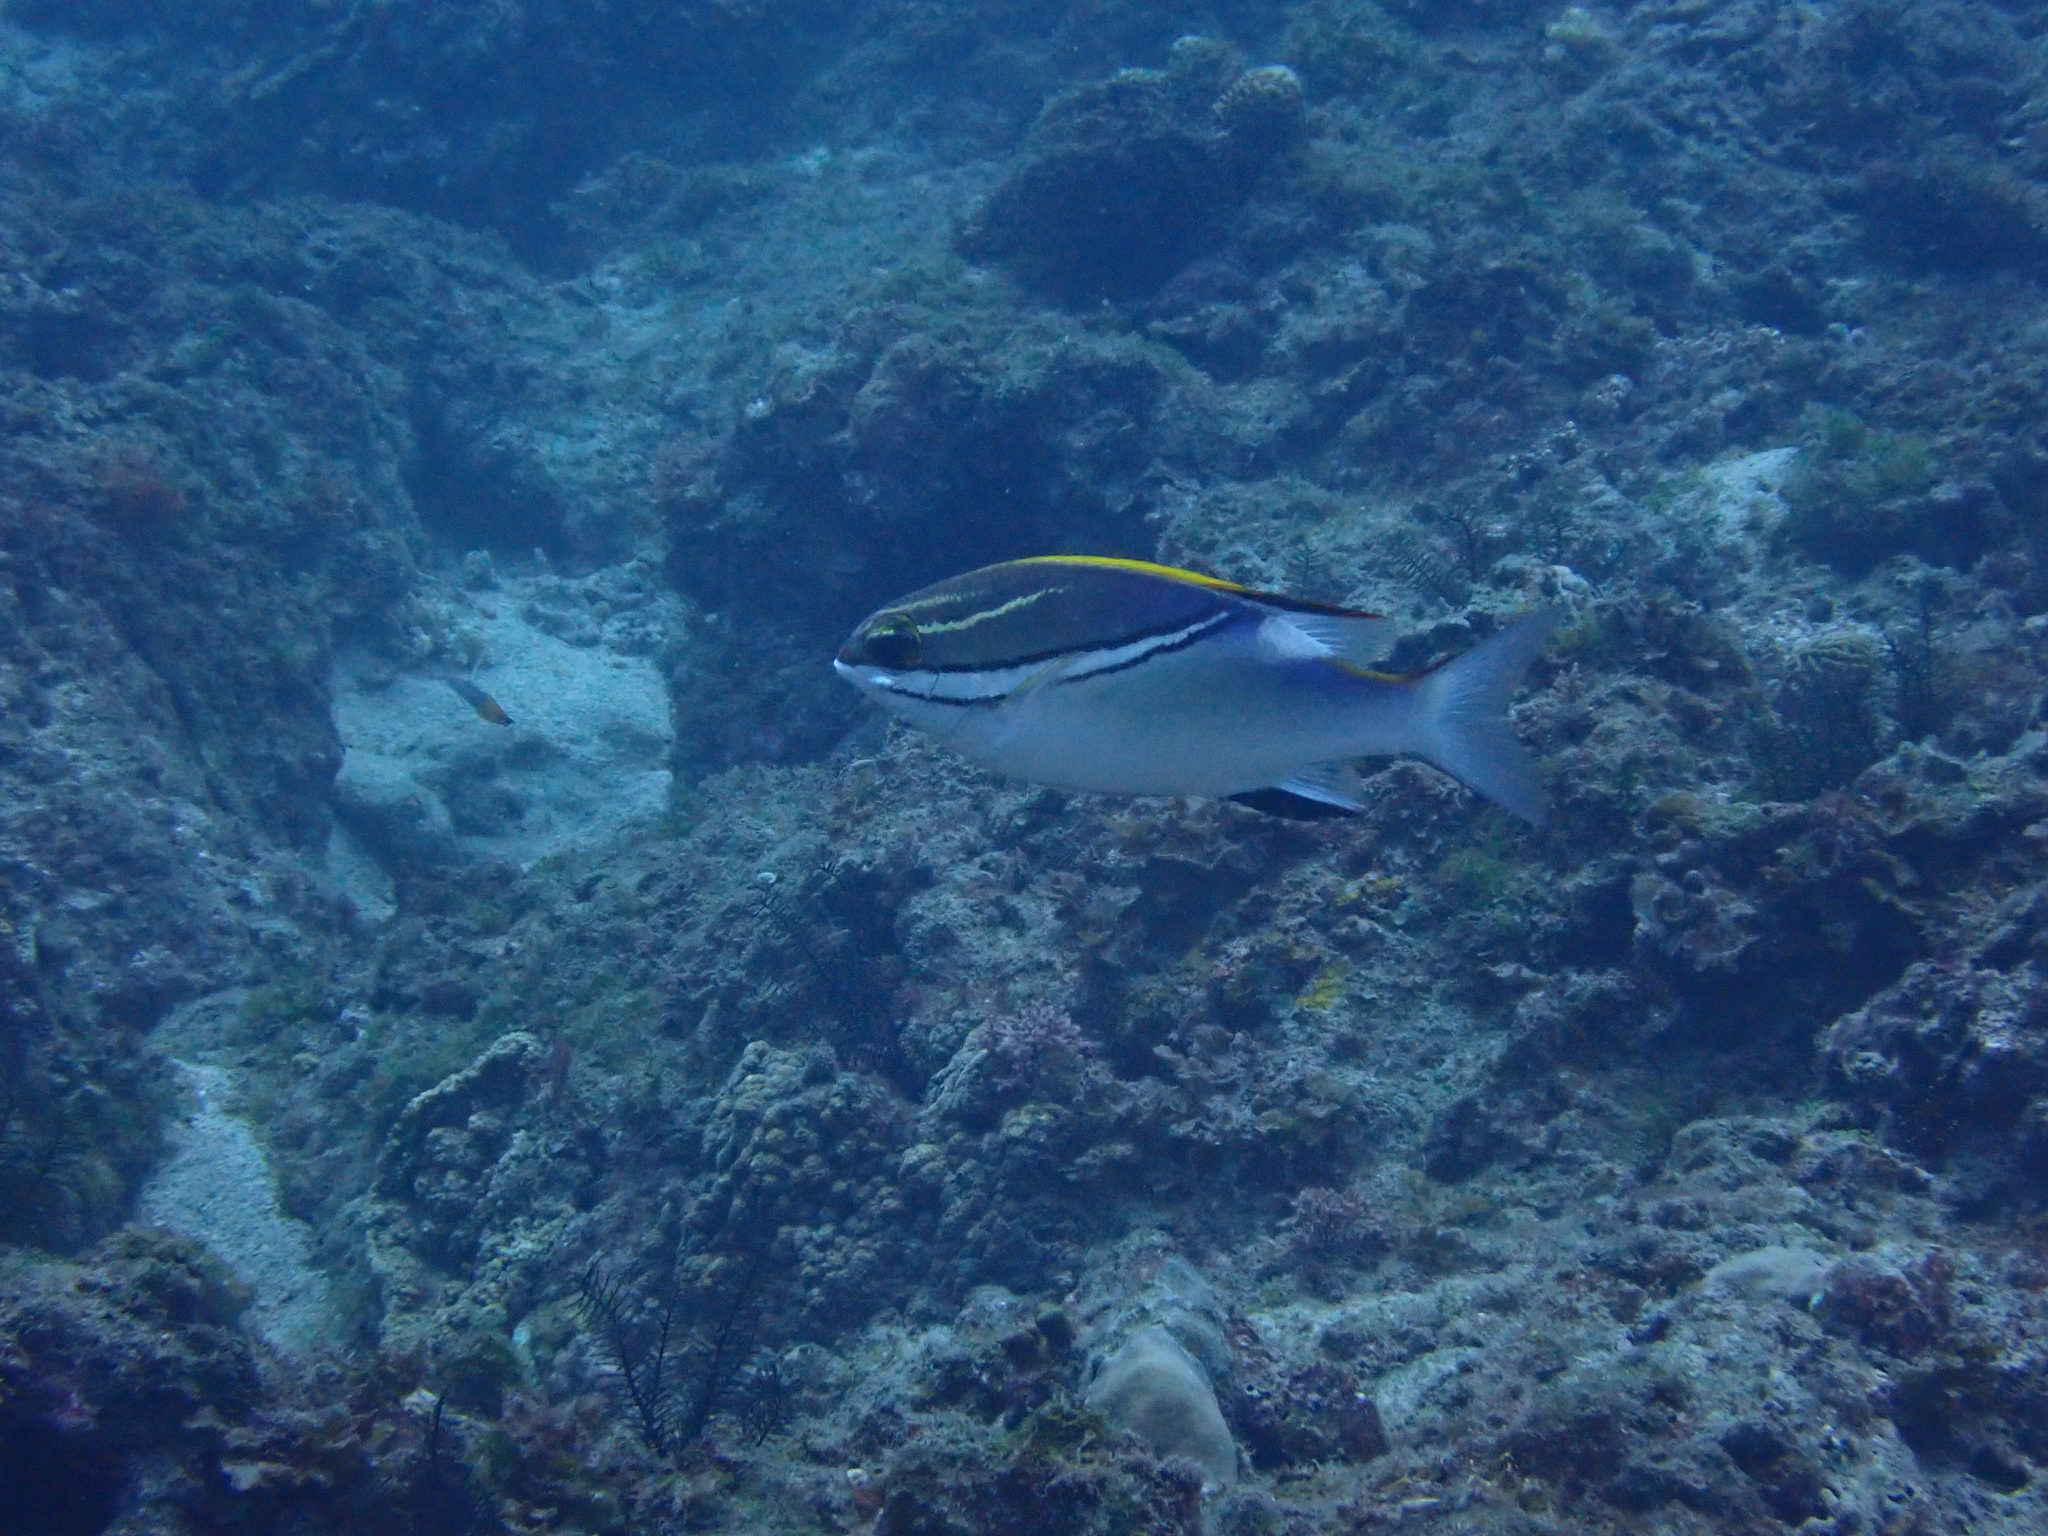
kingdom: Animalia
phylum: Chordata
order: Perciformes
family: Nemipteridae
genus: Scolopsis
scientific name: Scolopsis bilineata
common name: Two-lined monocle bream
